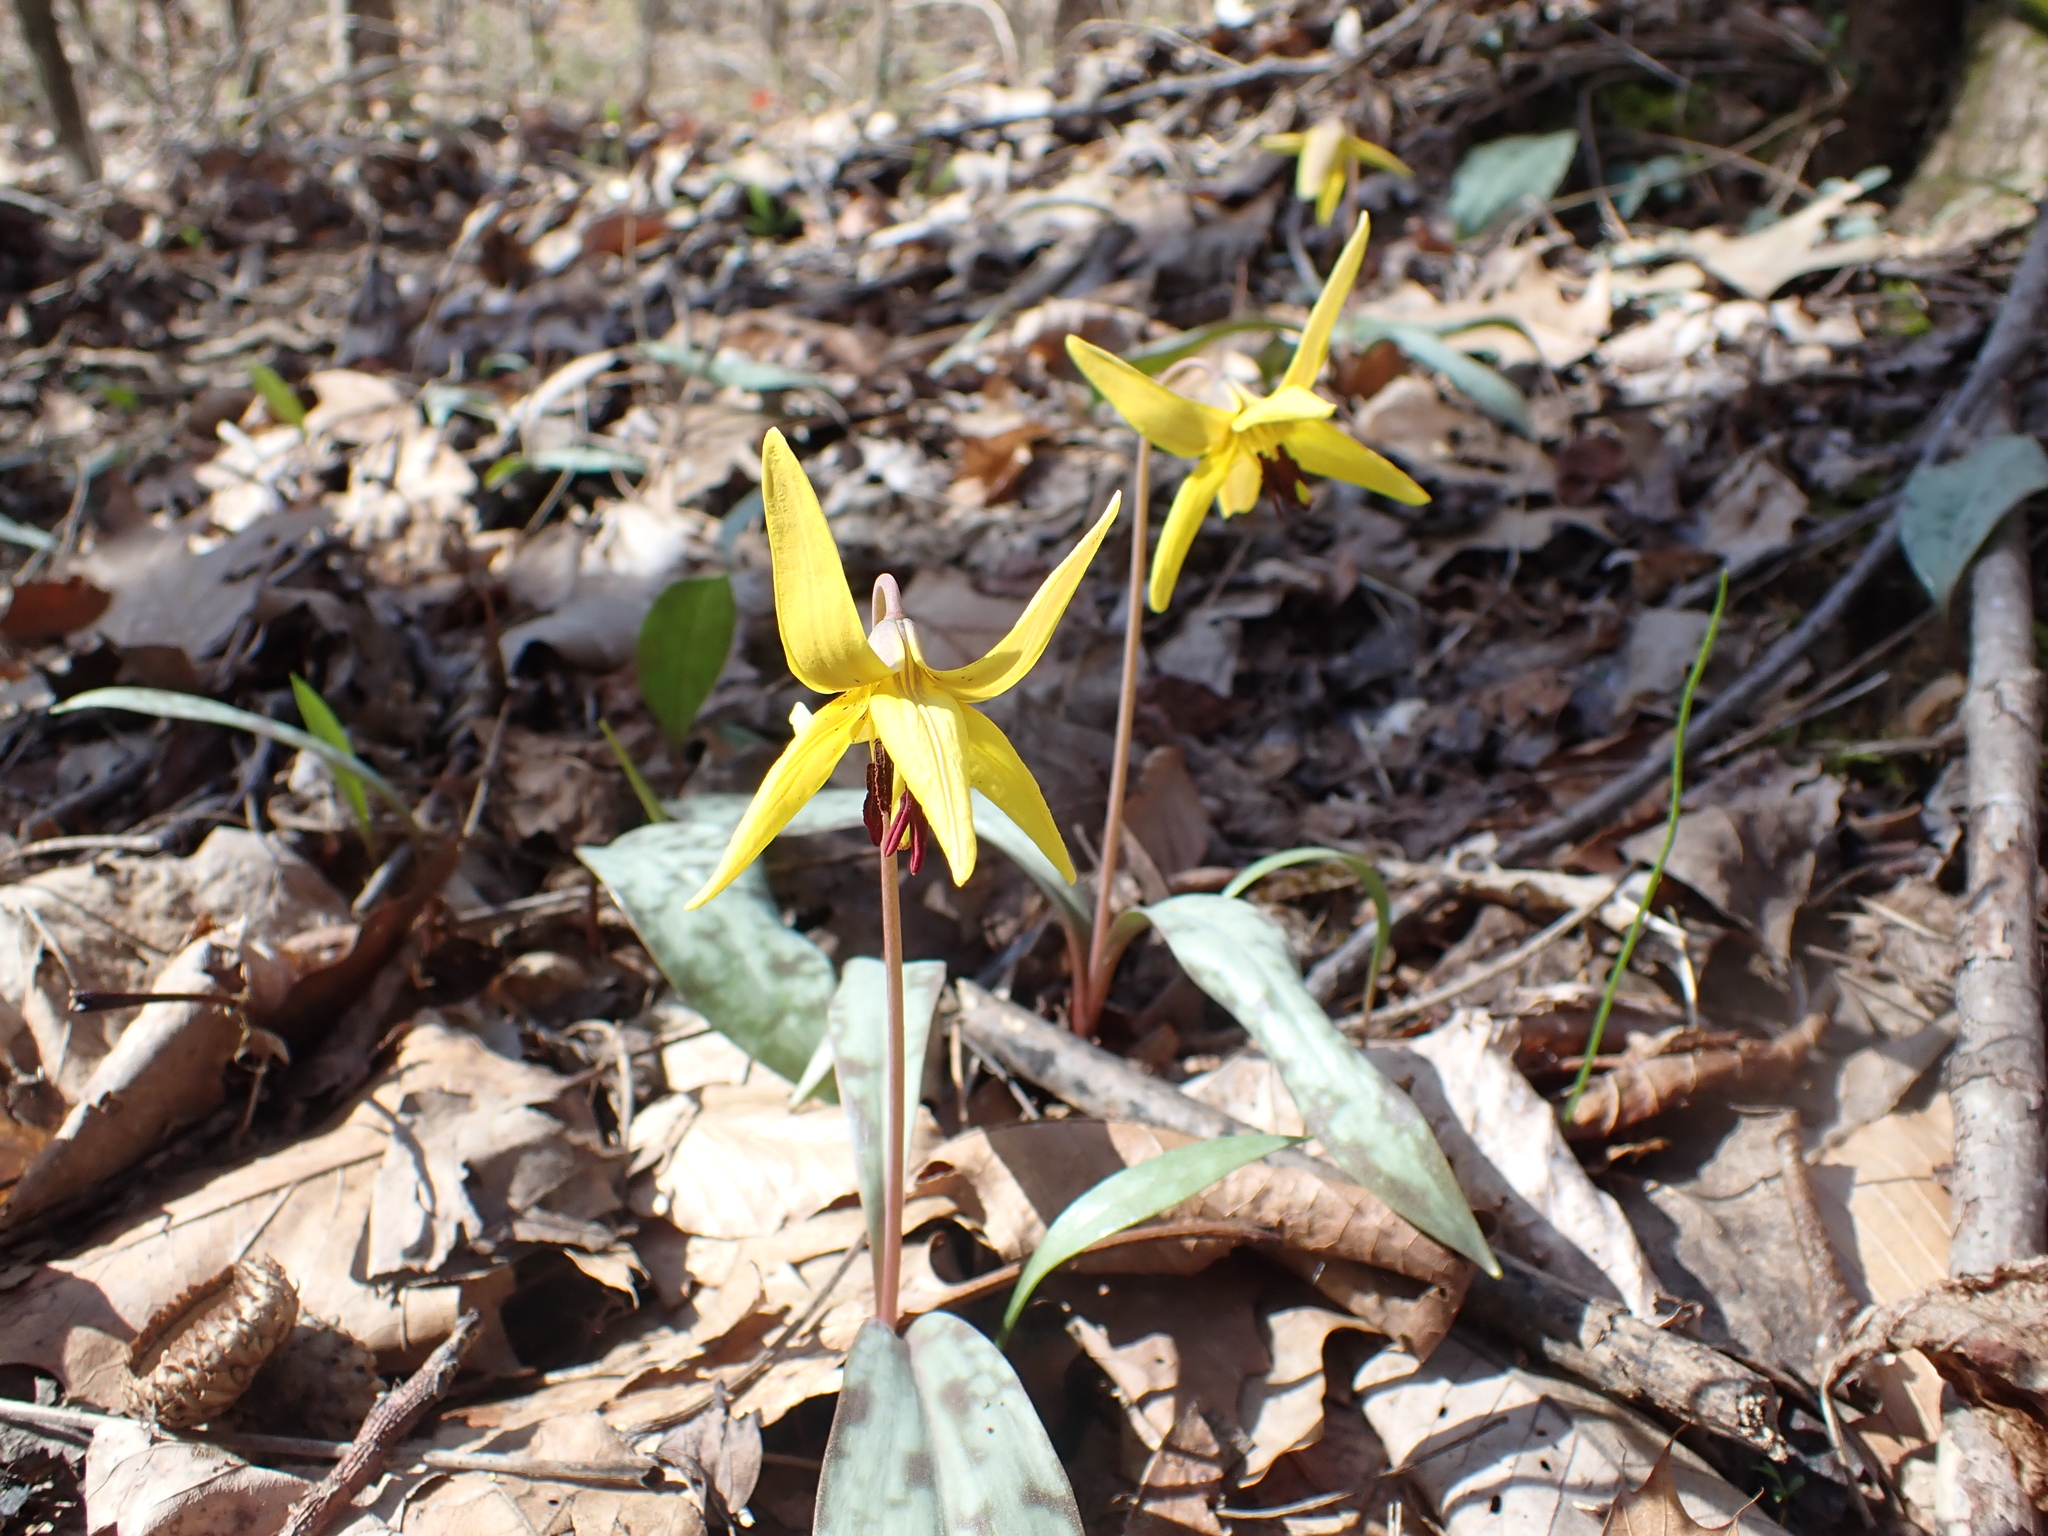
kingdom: Plantae
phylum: Tracheophyta
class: Liliopsida
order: Liliales
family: Liliaceae
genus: Erythronium
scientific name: Erythronium americanum
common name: Yellow adder's-tongue
